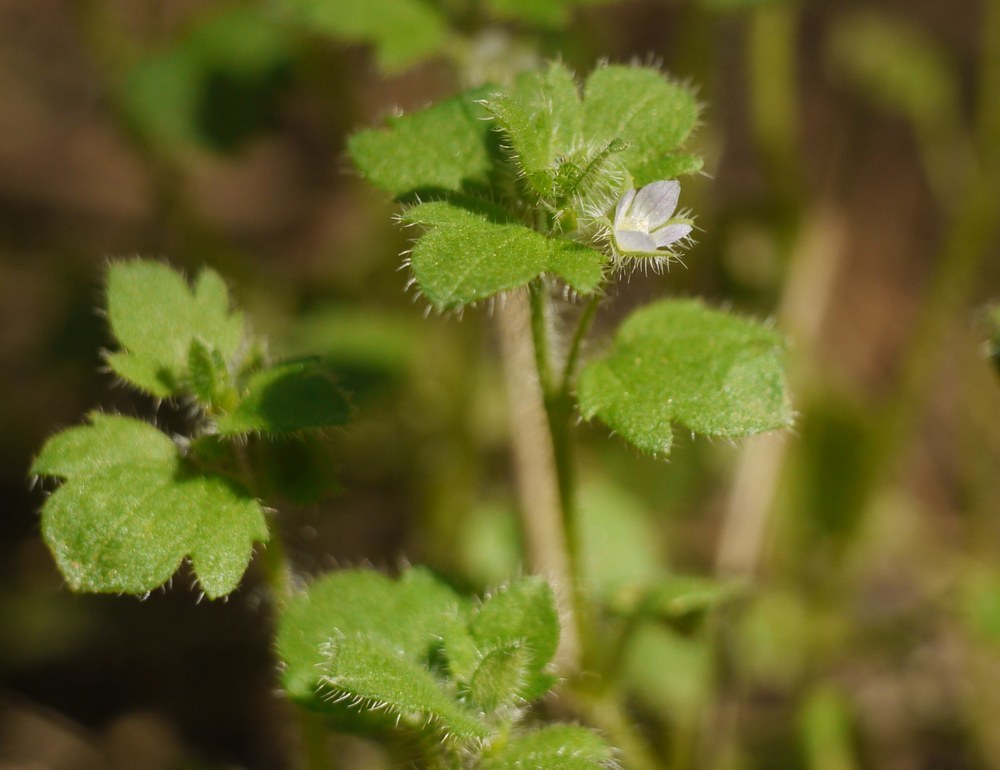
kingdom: Plantae
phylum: Tracheophyta
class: Magnoliopsida
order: Lamiales
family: Plantaginaceae
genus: Veronica
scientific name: Veronica sublobata
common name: False ivy-leaved speedwell
